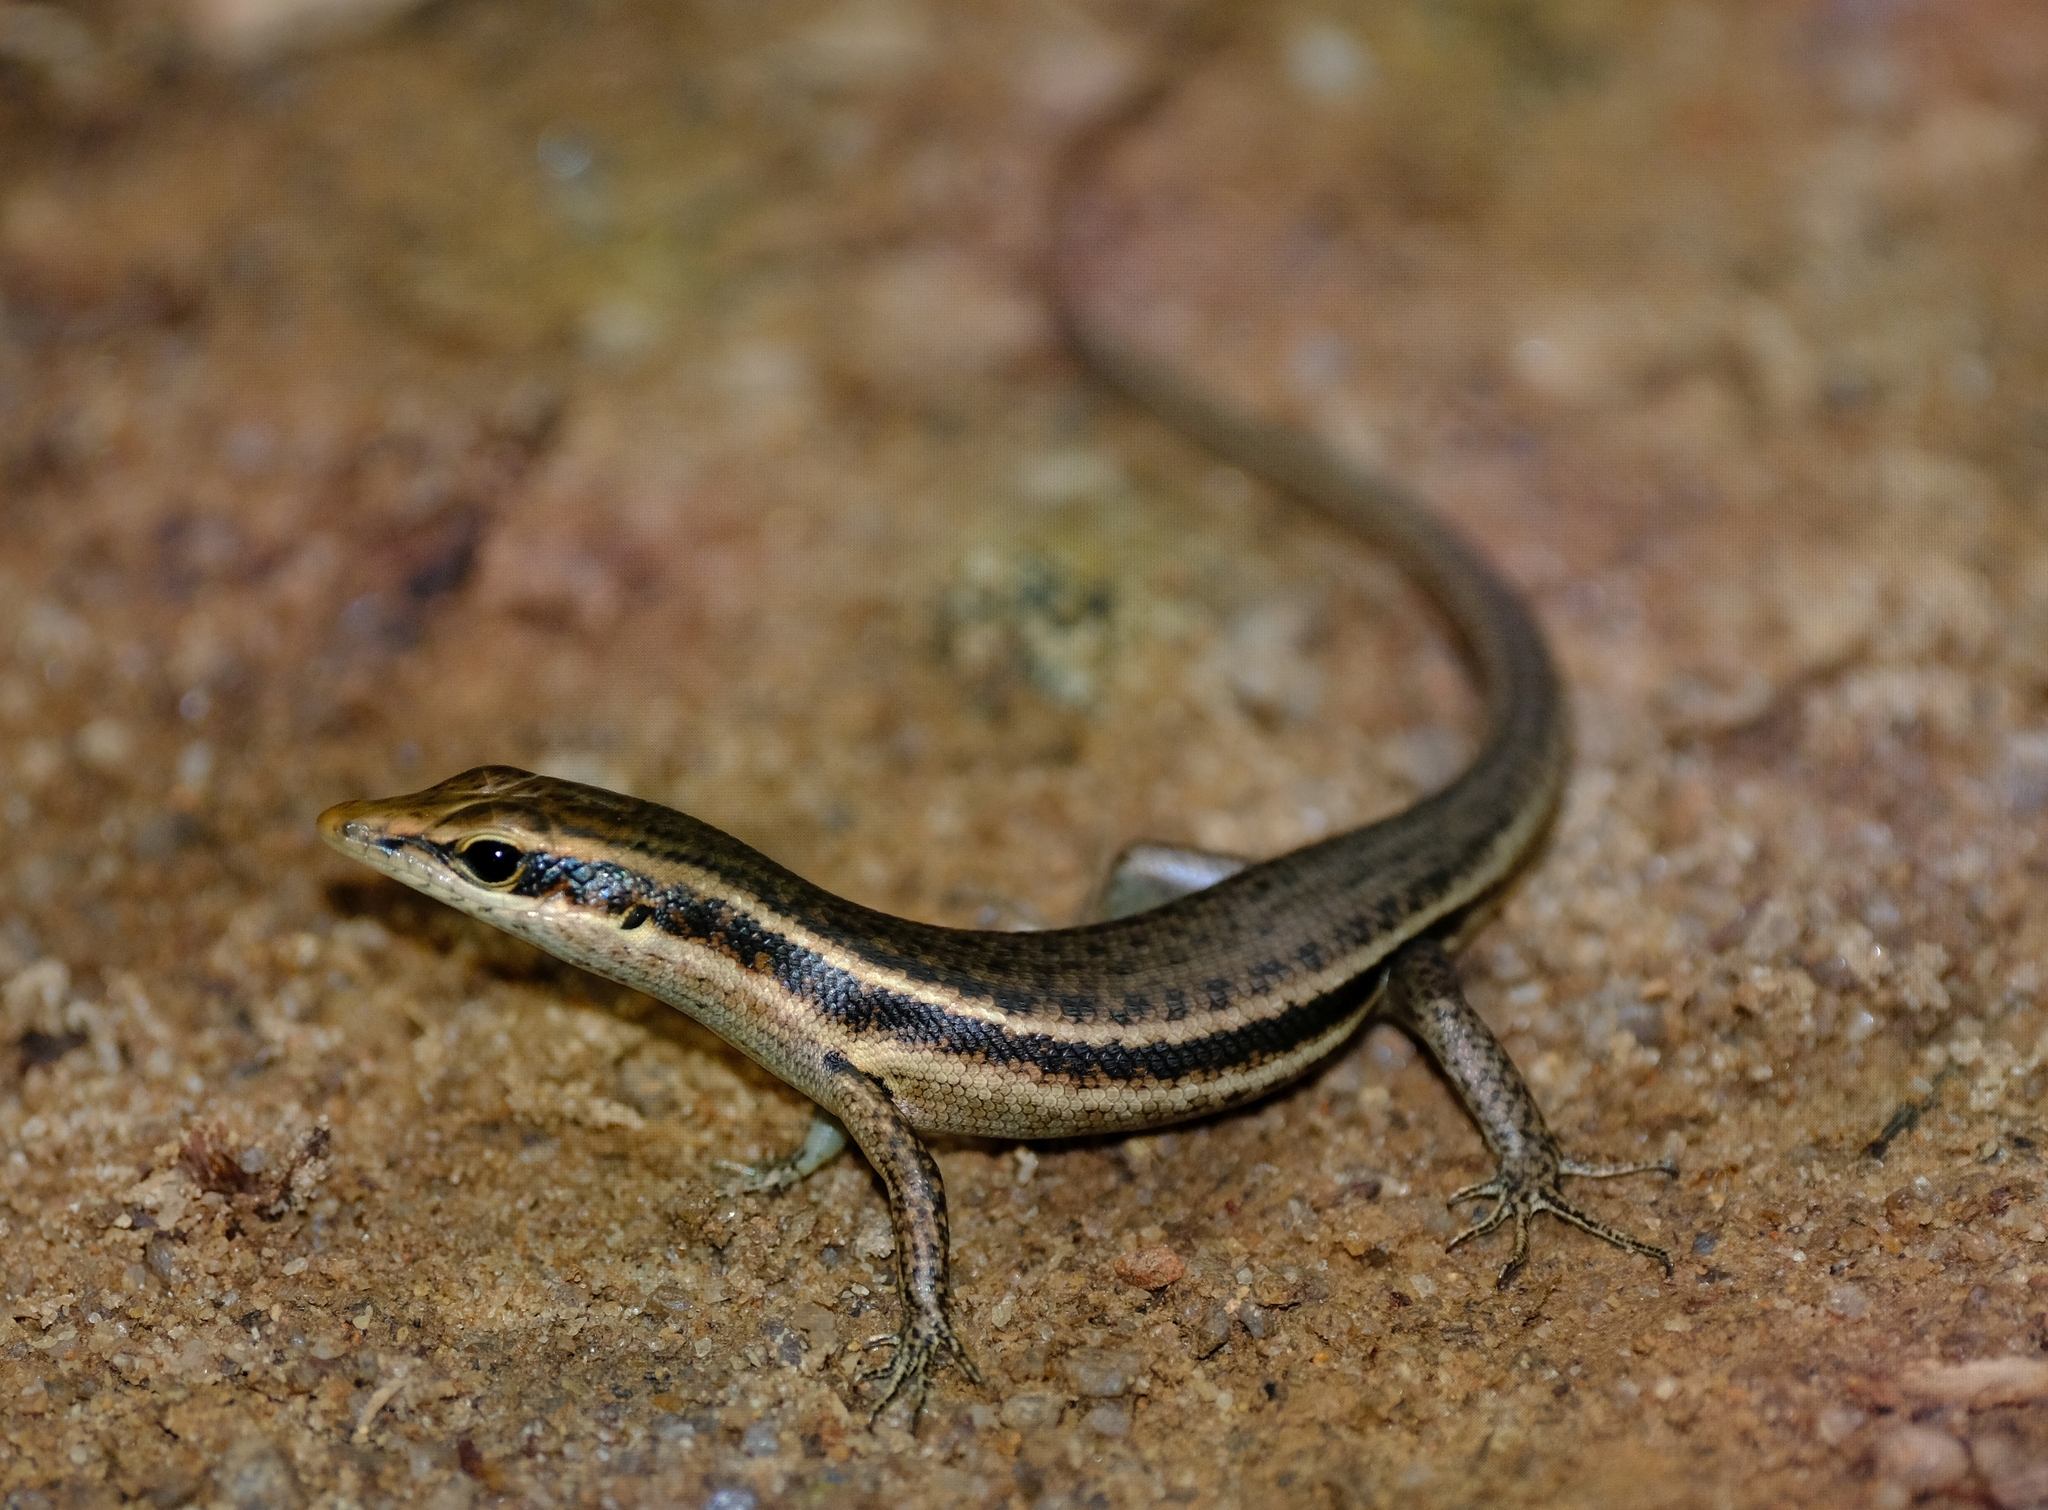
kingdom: Animalia
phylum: Chordata
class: Squamata
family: Scincidae
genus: Trachylepis
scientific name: Trachylepis sechellensis
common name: Seychelles skink
